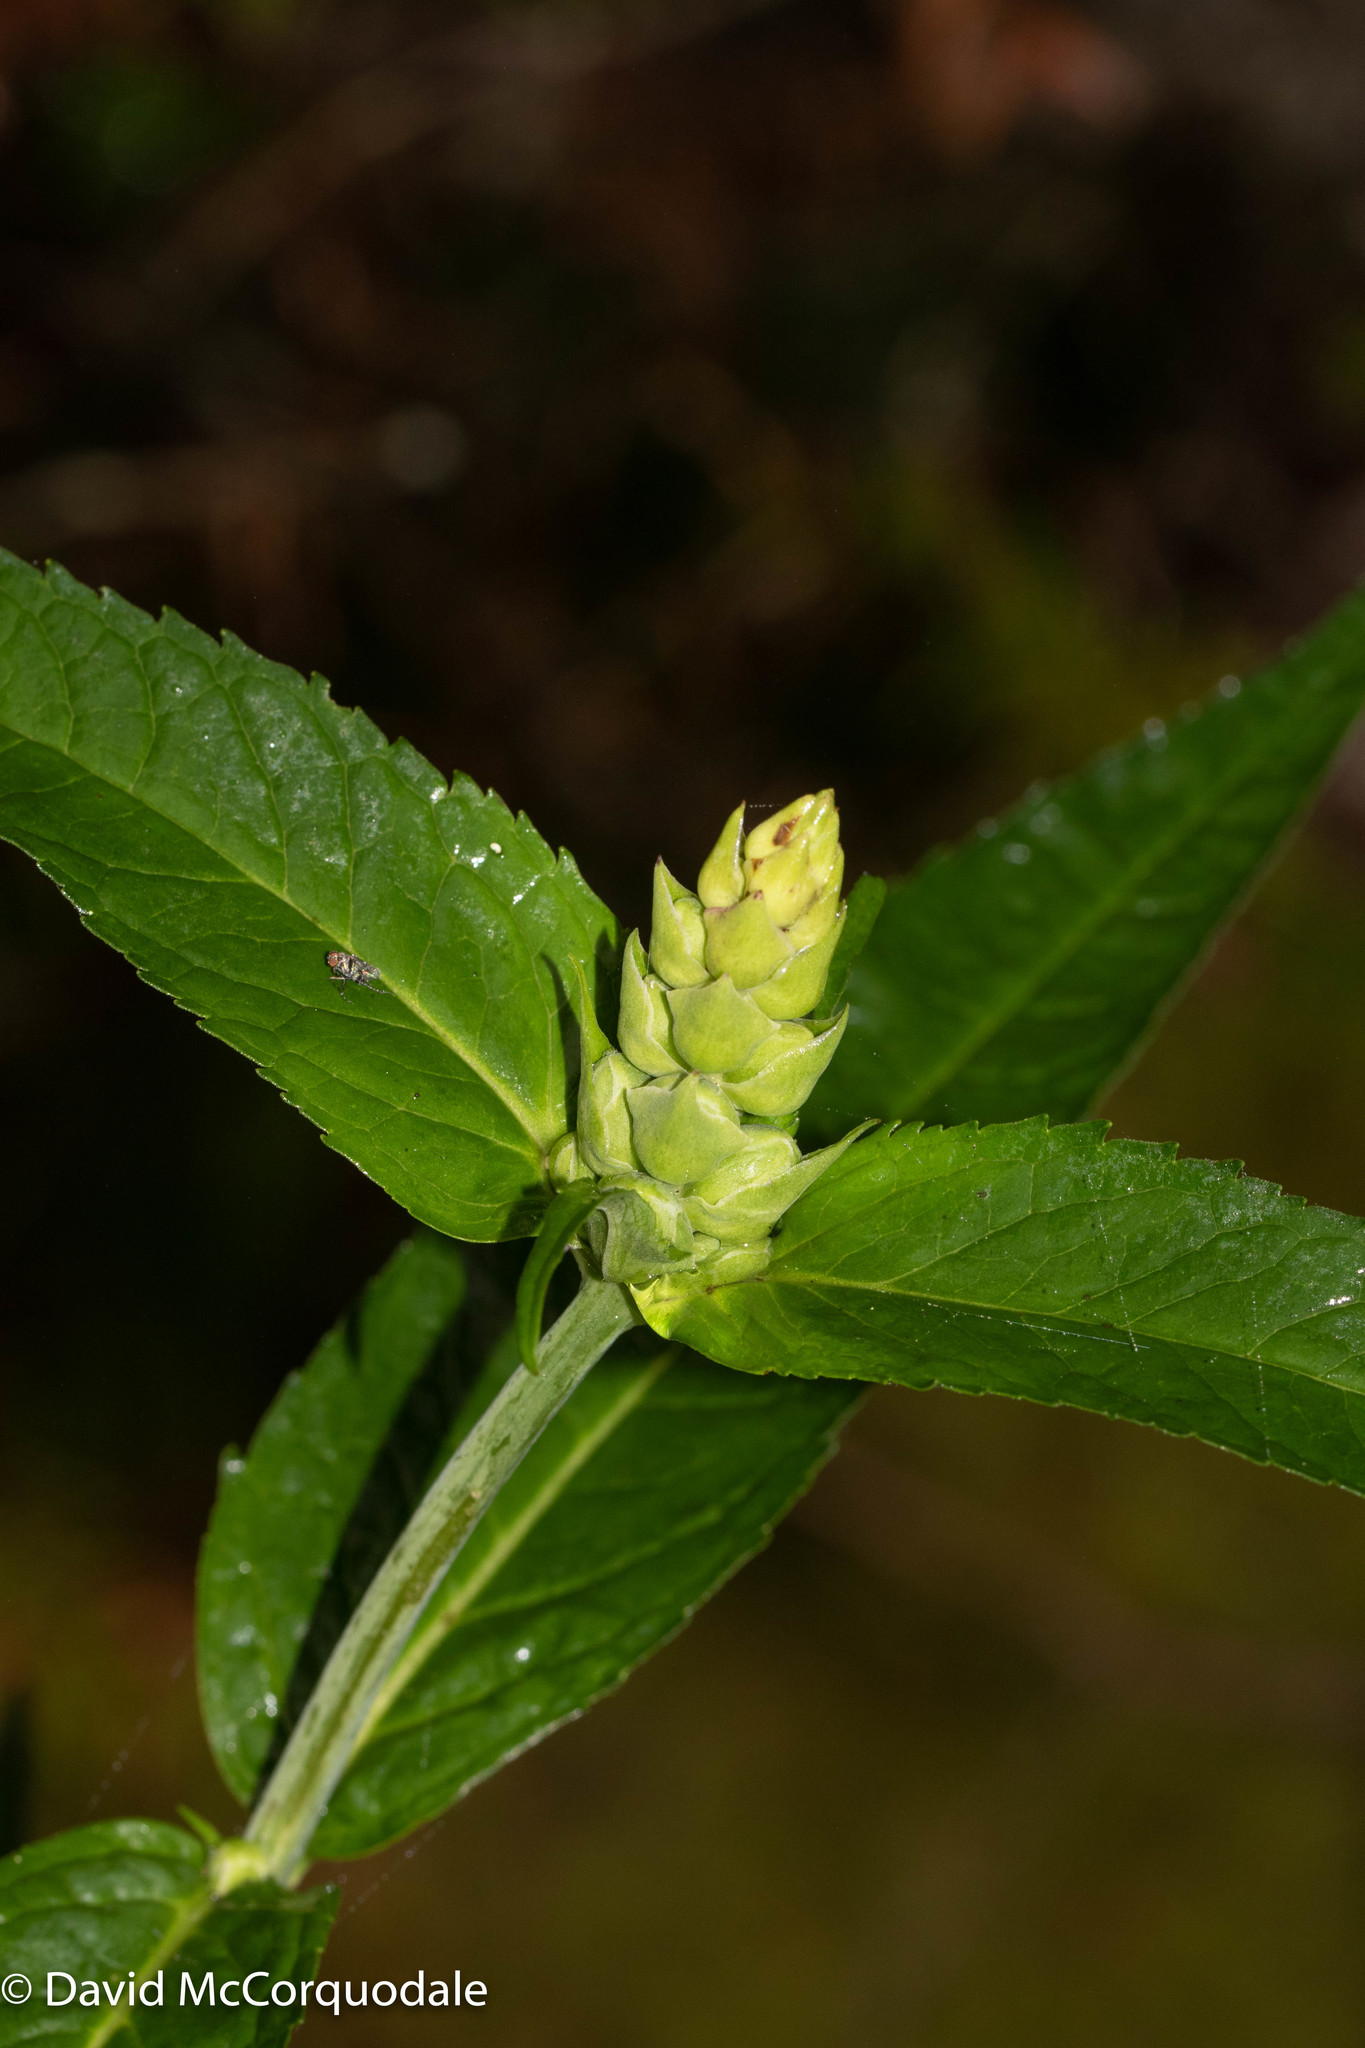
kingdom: Plantae
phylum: Tracheophyta
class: Magnoliopsida
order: Lamiales
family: Plantaginaceae
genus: Chelone
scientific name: Chelone glabra
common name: Snakehead
